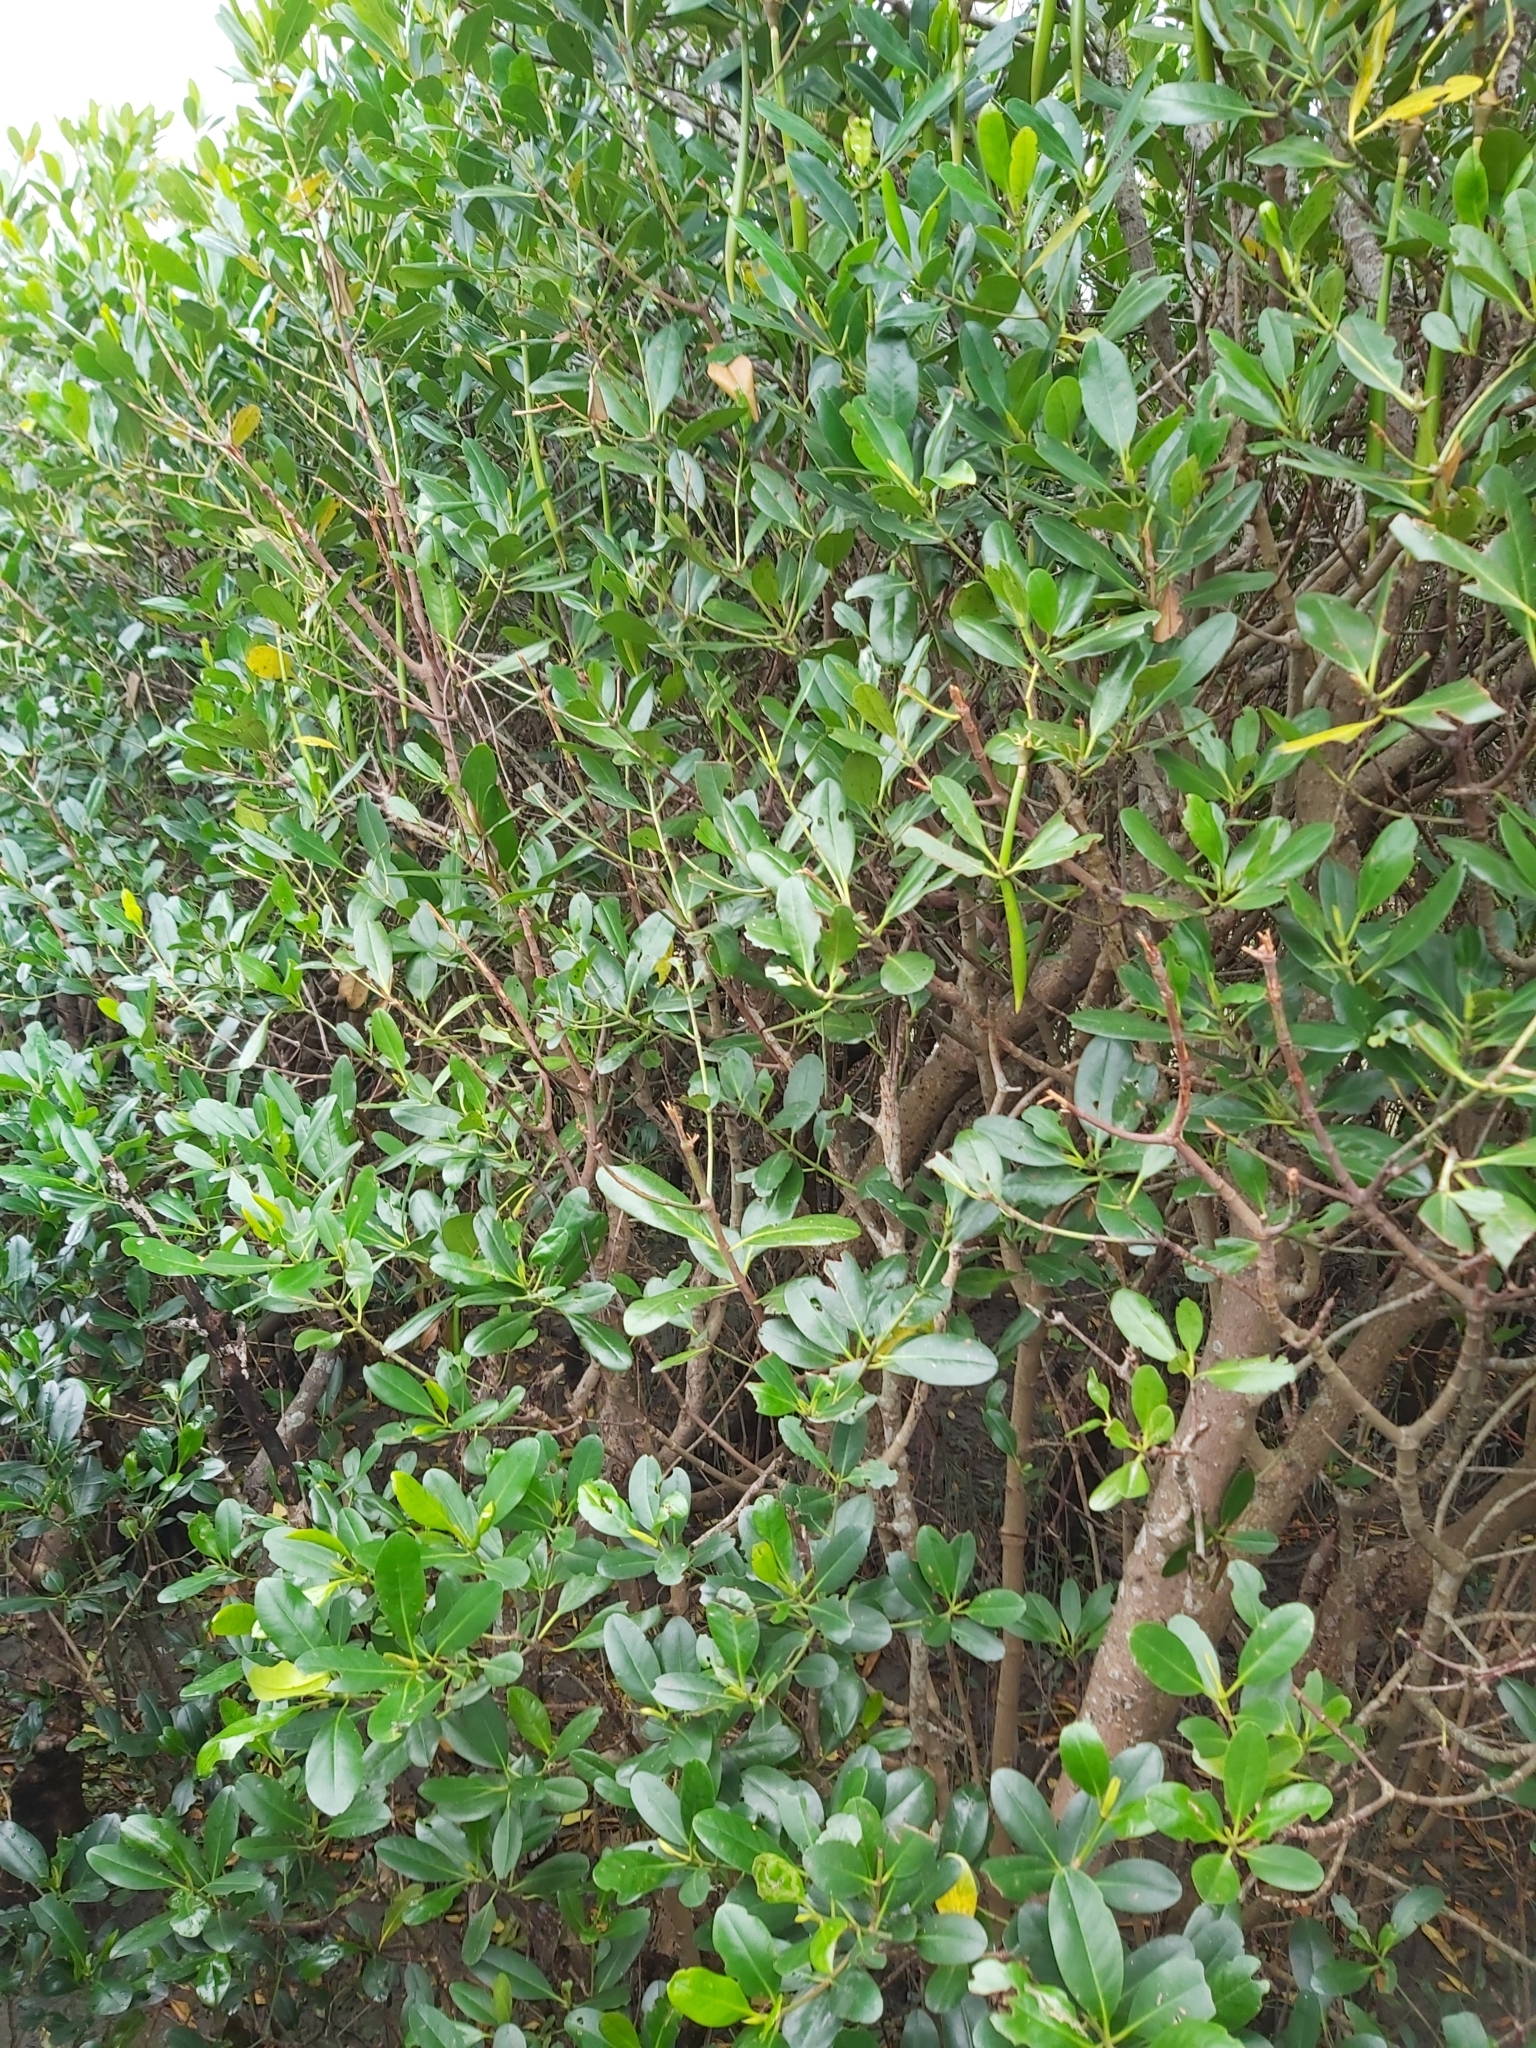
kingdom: Plantae
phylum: Tracheophyta
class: Magnoliopsida
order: Malpighiales
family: Rhizophoraceae
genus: Kandelia
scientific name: Kandelia obovata
